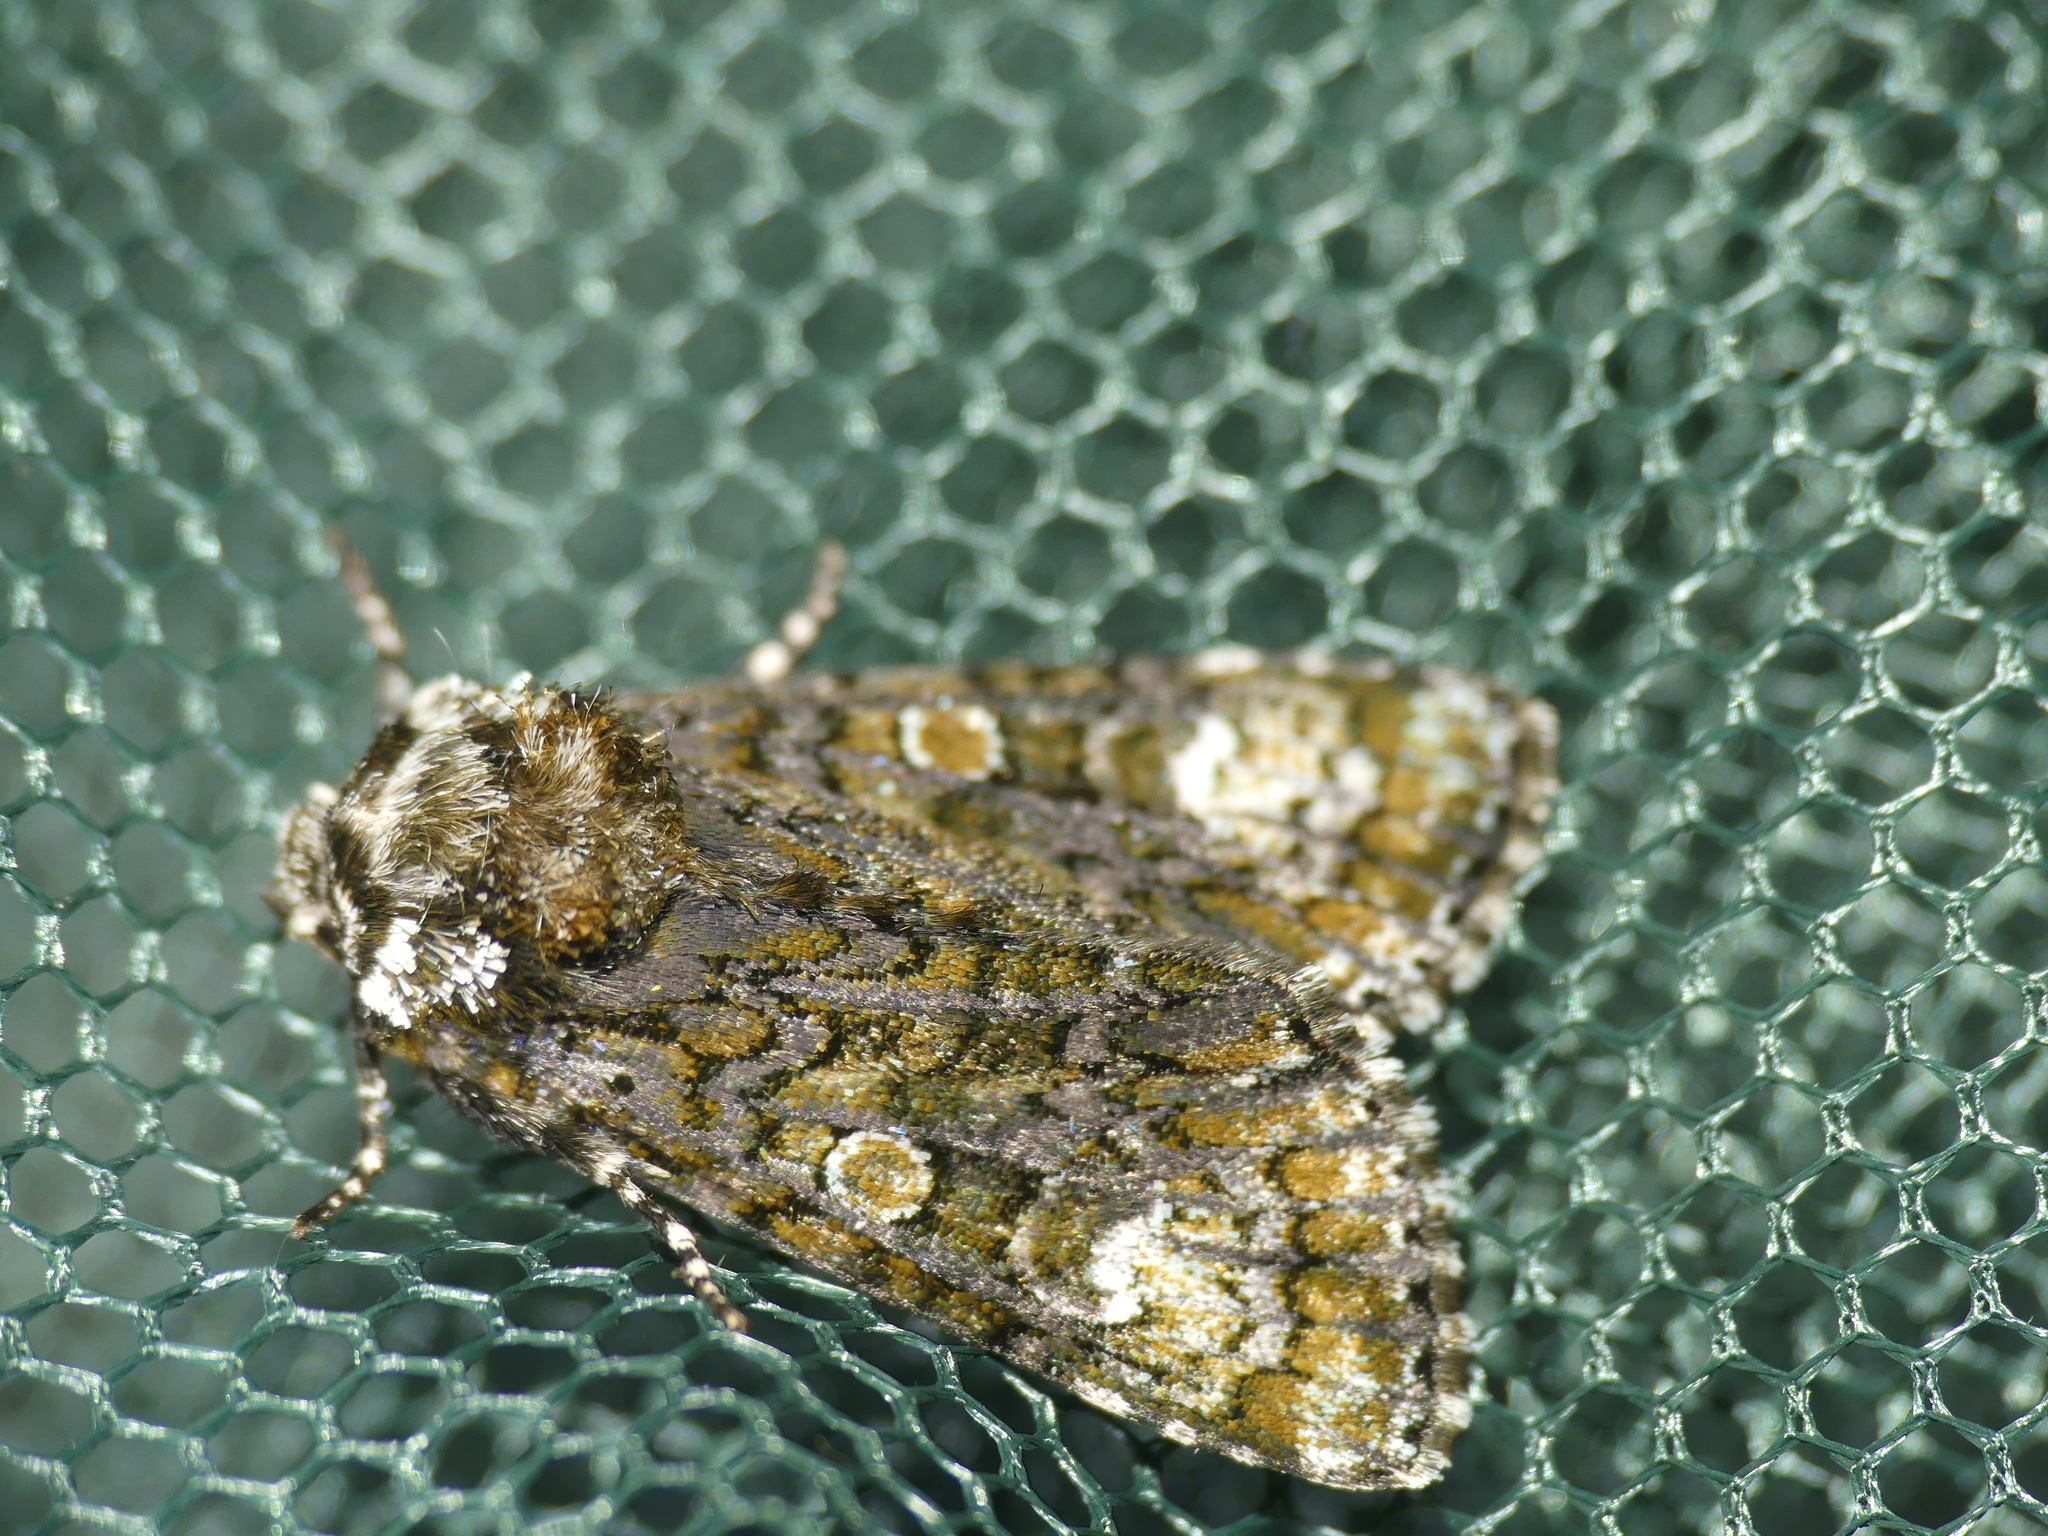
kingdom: Animalia
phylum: Arthropoda
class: Insecta
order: Lepidoptera
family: Noctuidae
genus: Craniophora
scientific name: Craniophora ligustri
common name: Coronet
